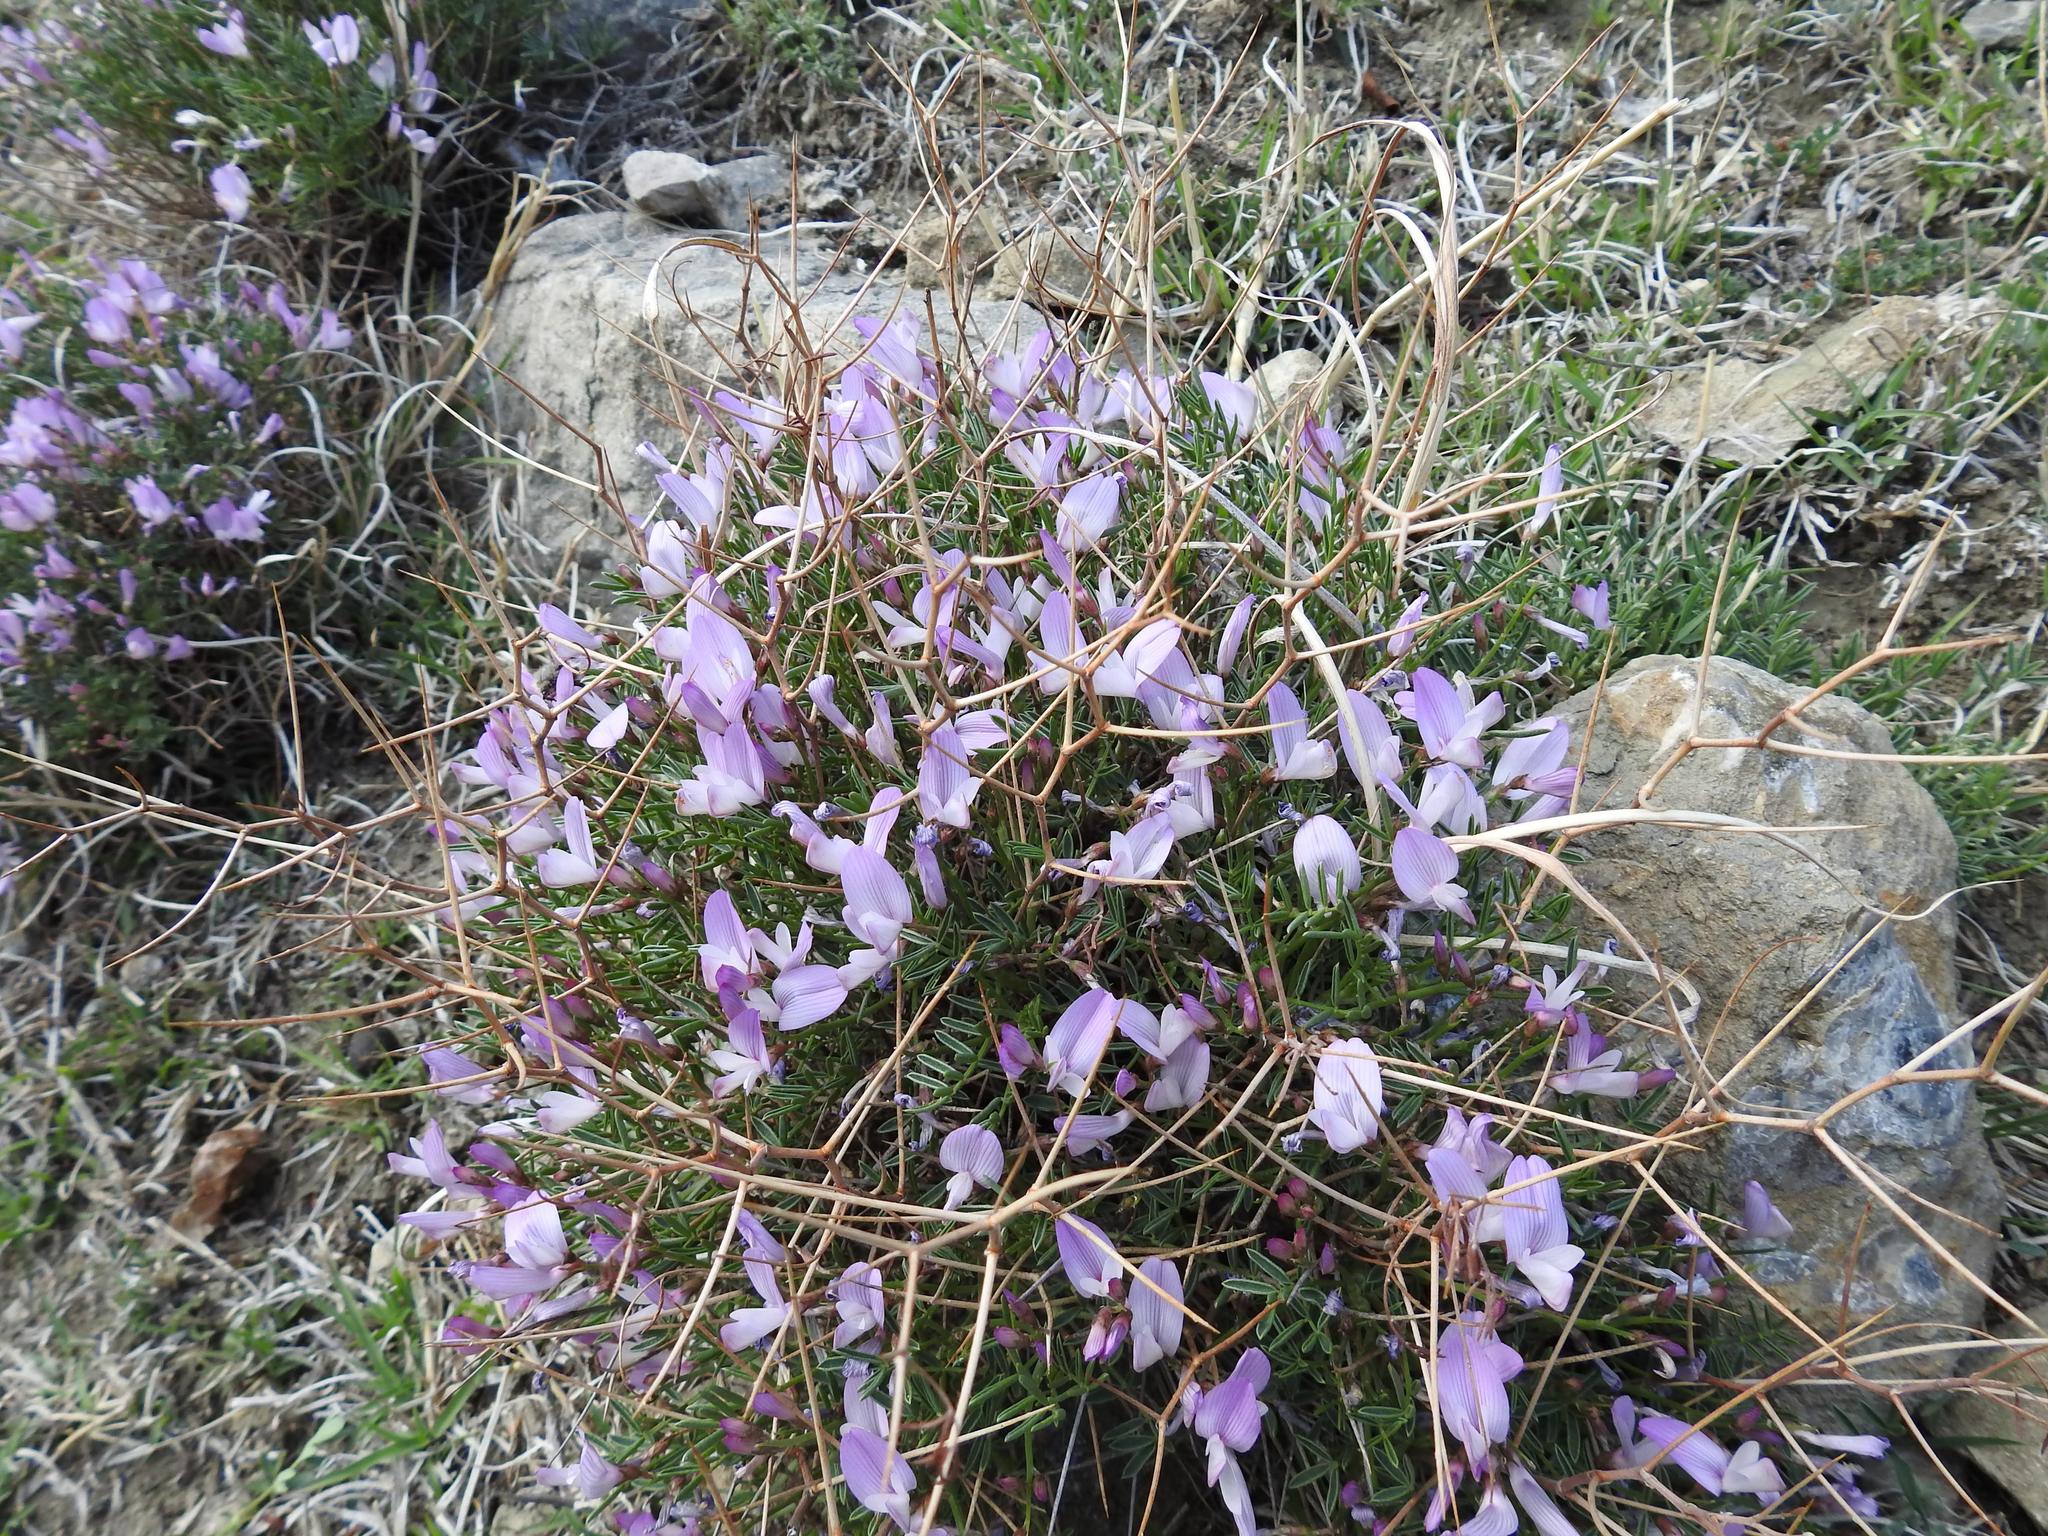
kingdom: Plantae
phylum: Tracheophyta
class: Magnoliopsida
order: Fabales
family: Fabaceae
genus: Onobrychis
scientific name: Onobrychis cornuta
